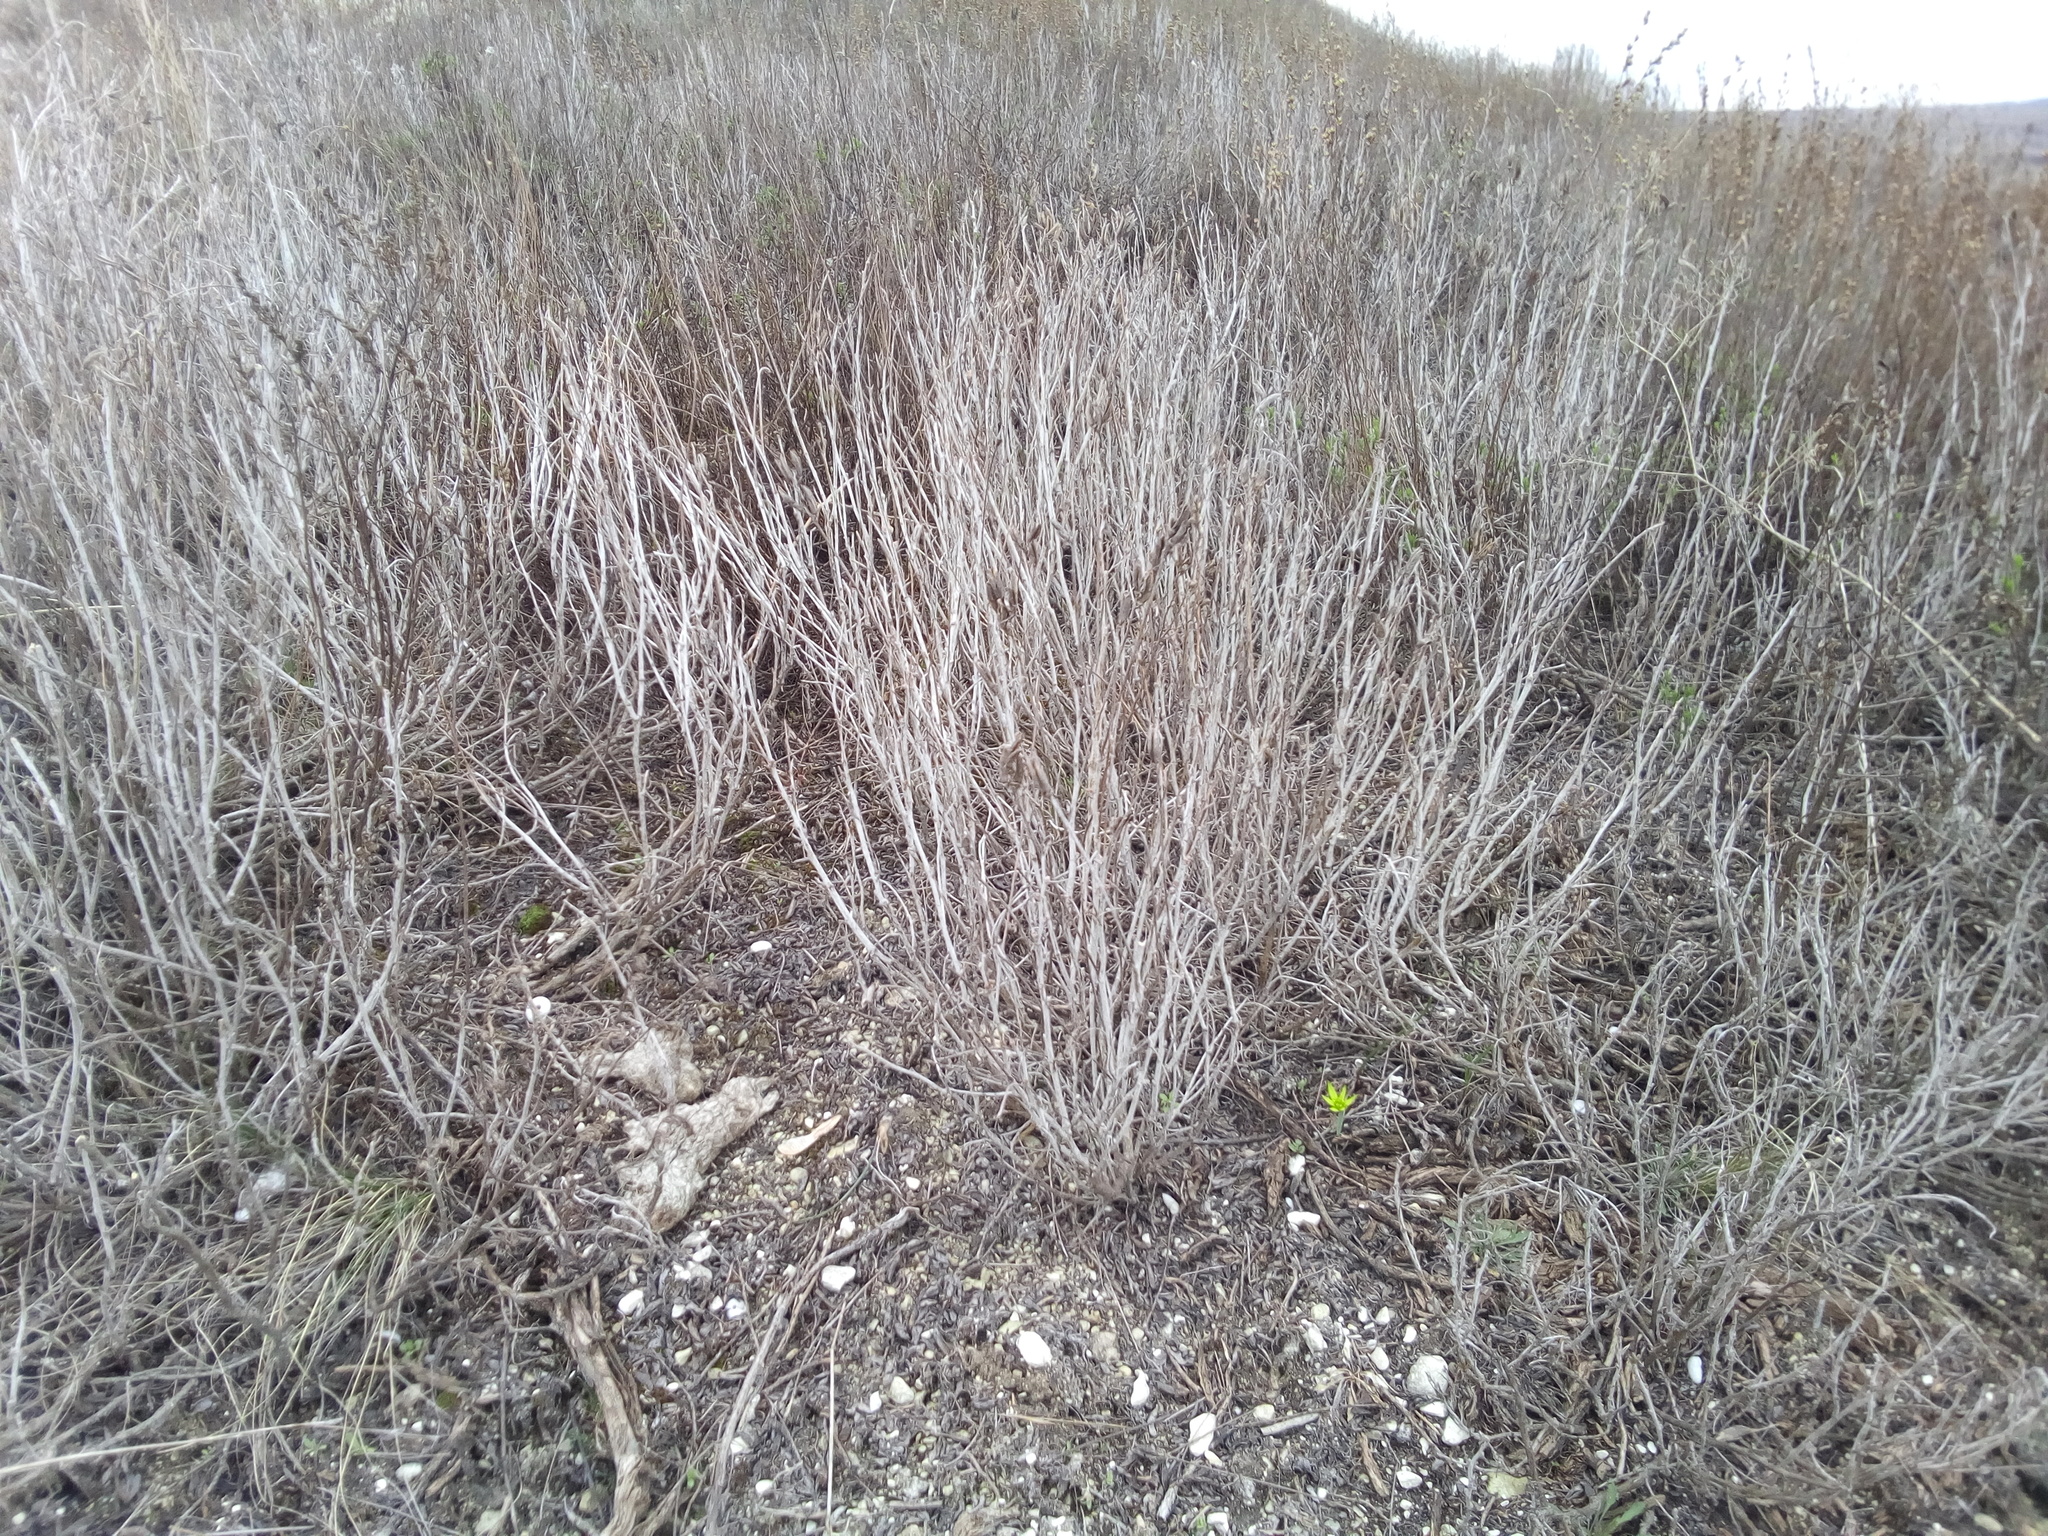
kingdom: Plantae
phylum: Tracheophyta
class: Magnoliopsida
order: Asterales
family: Asteraceae
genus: Artemisia
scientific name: Artemisia salsoloides
